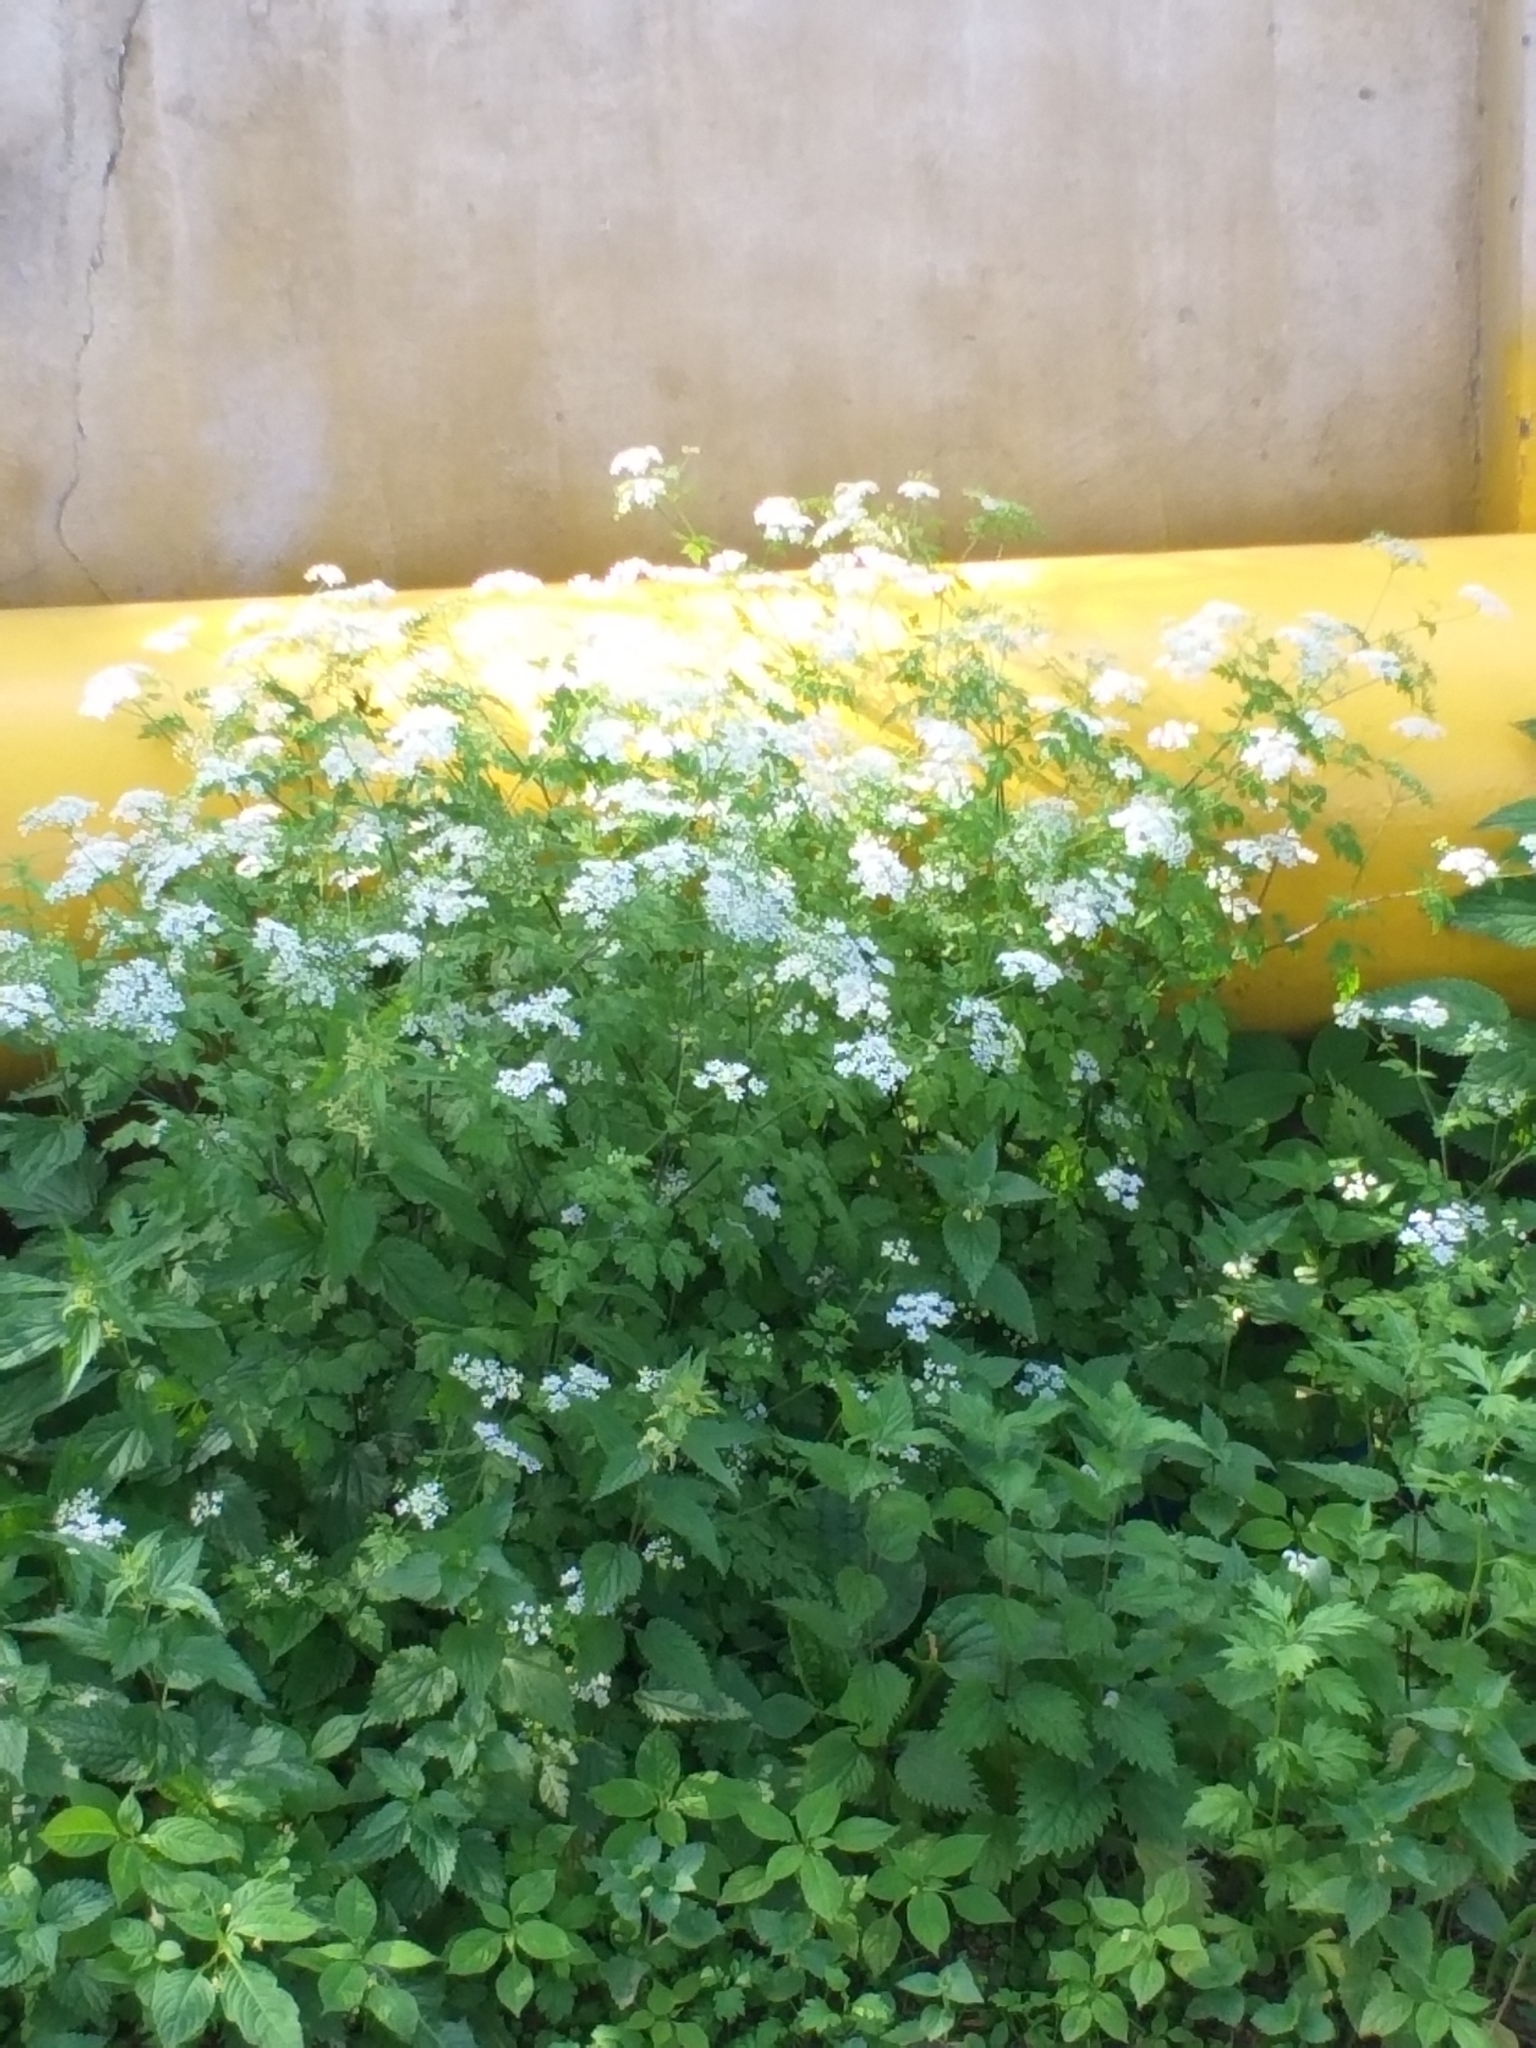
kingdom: Plantae
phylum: Tracheophyta
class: Magnoliopsida
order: Apiales
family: Apiaceae
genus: Chaerophyllum
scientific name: Chaerophyllum temulum
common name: Rough chervil
